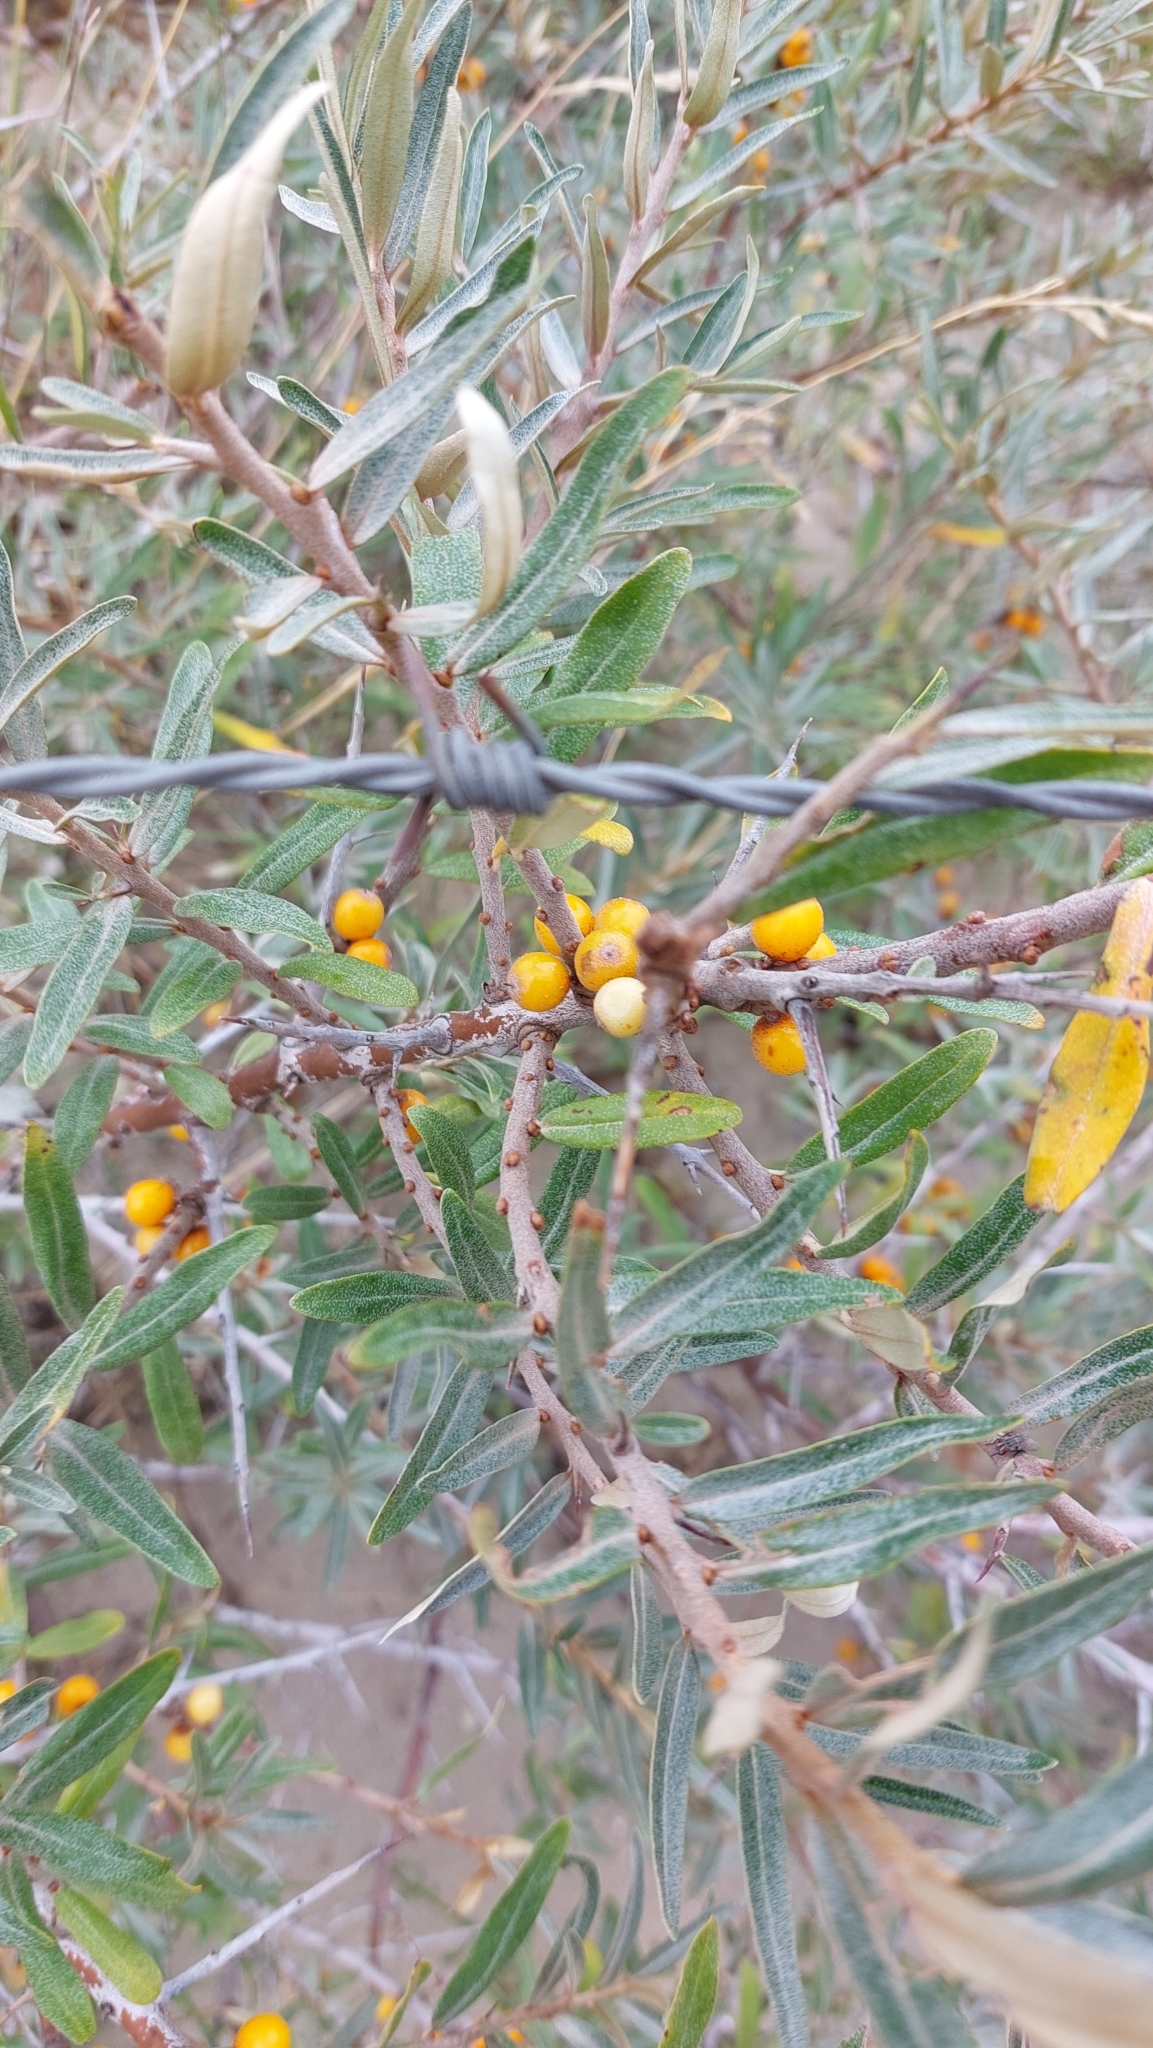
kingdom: Plantae
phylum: Tracheophyta
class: Magnoliopsida
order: Rosales
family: Elaeagnaceae
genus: Hippophae
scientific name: Hippophae rhamnoides
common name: Sea-buckthorn
